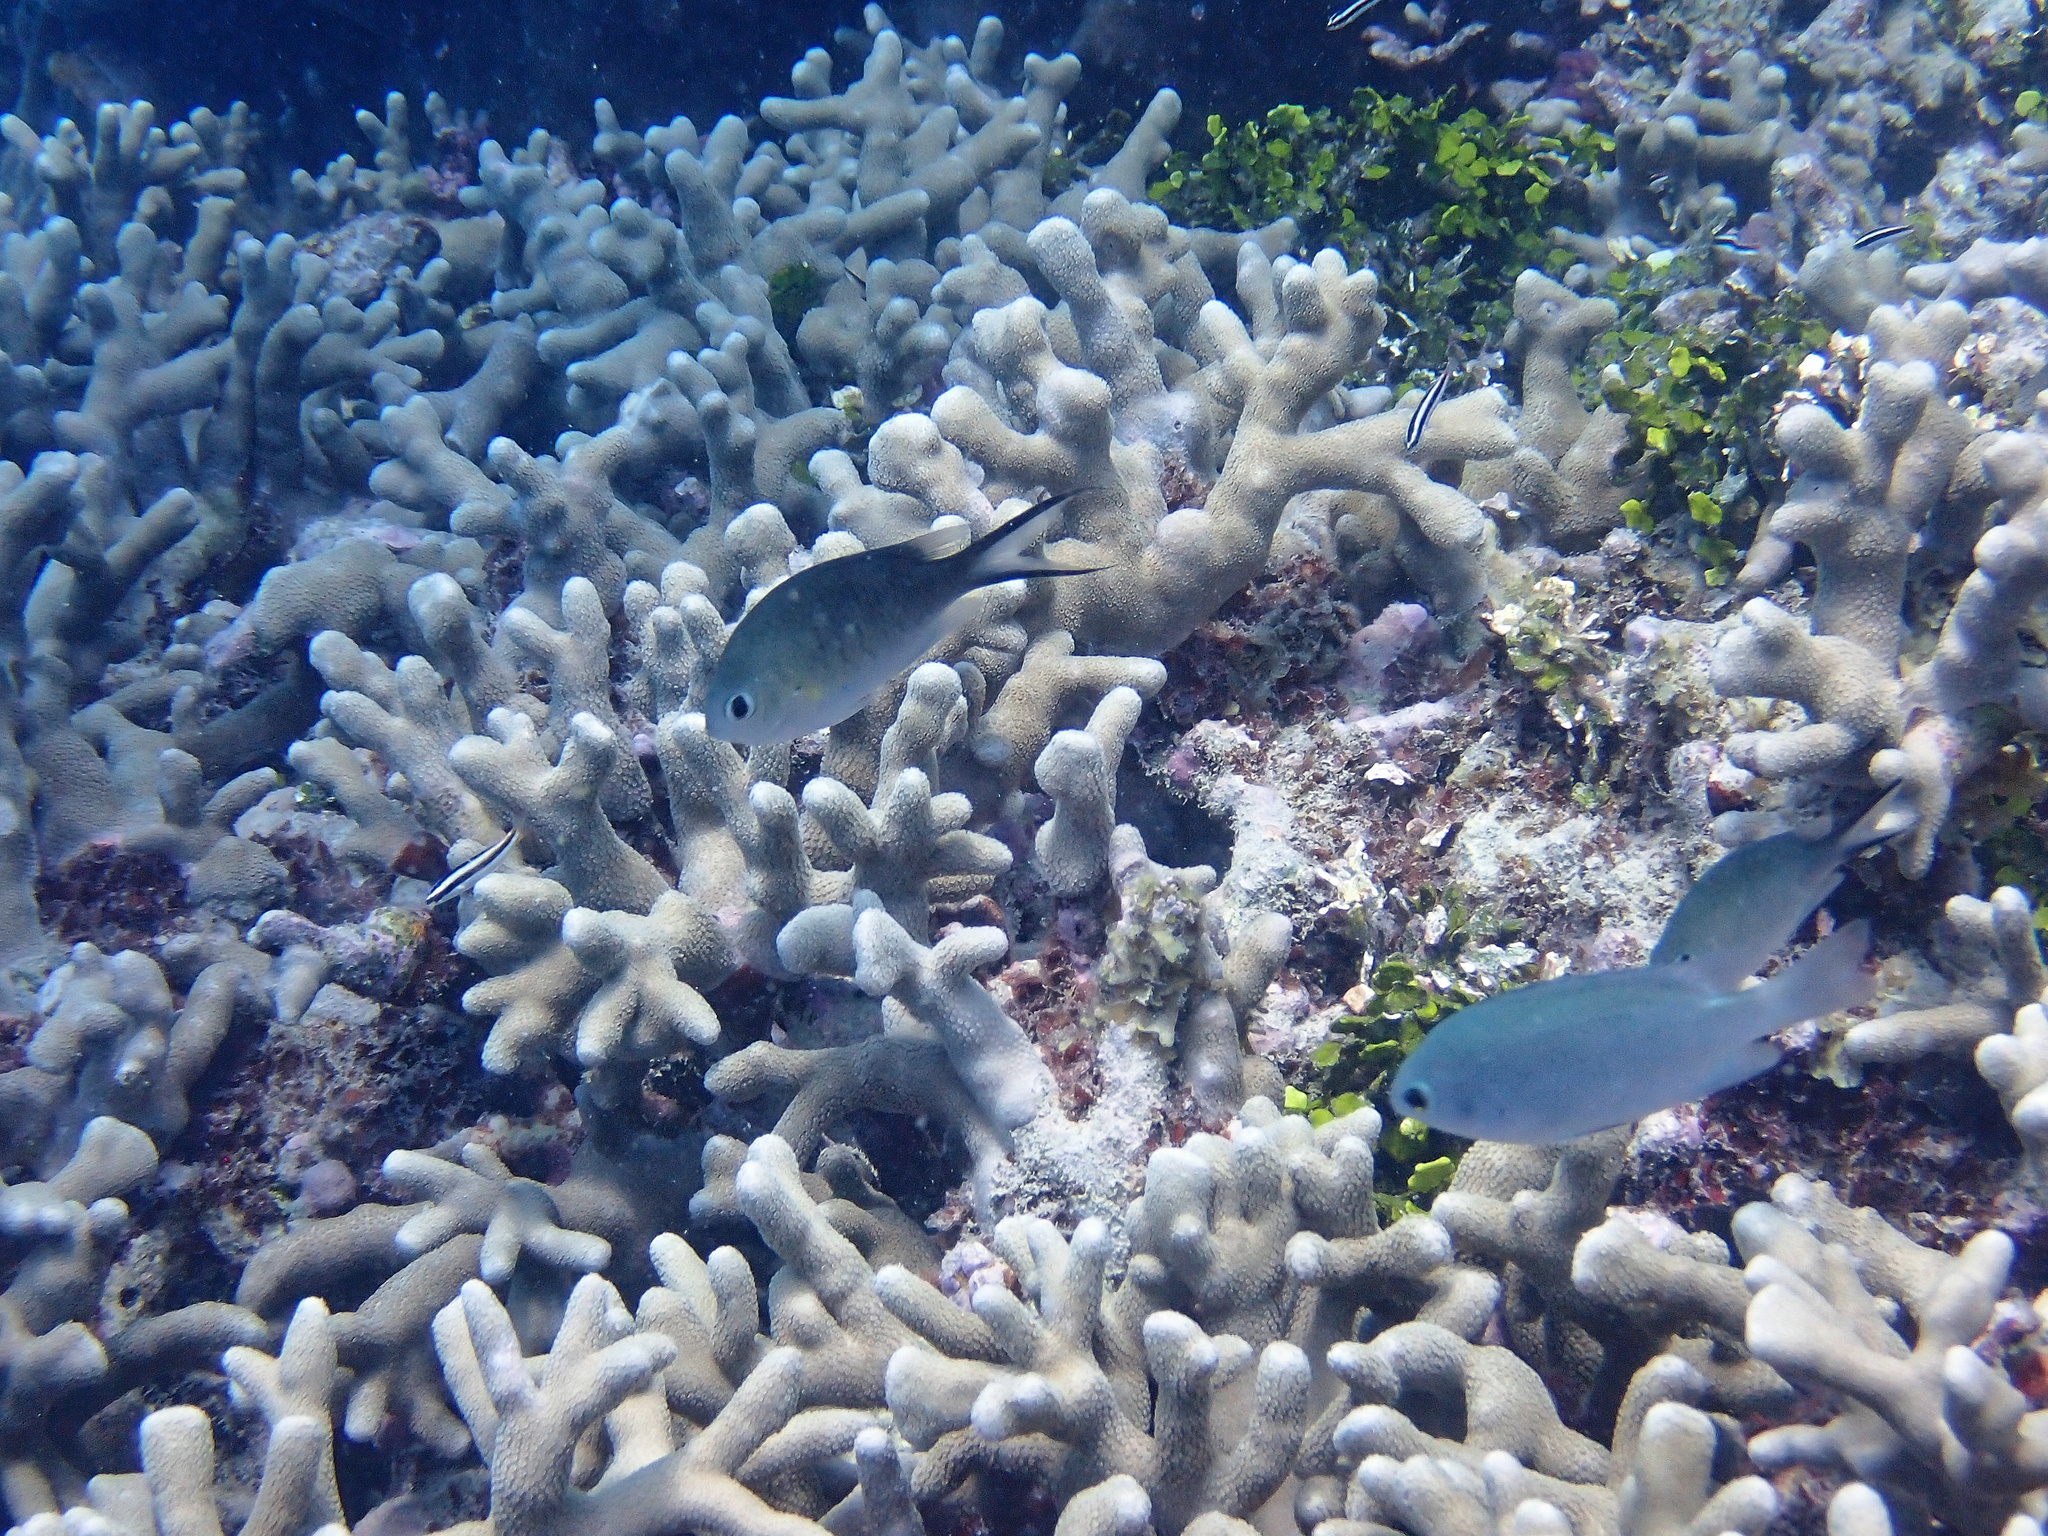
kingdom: Animalia
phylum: Chordata
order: Perciformes
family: Pomacentridae
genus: Chromis
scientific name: Chromis ternatensis
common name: Ternate chromis
